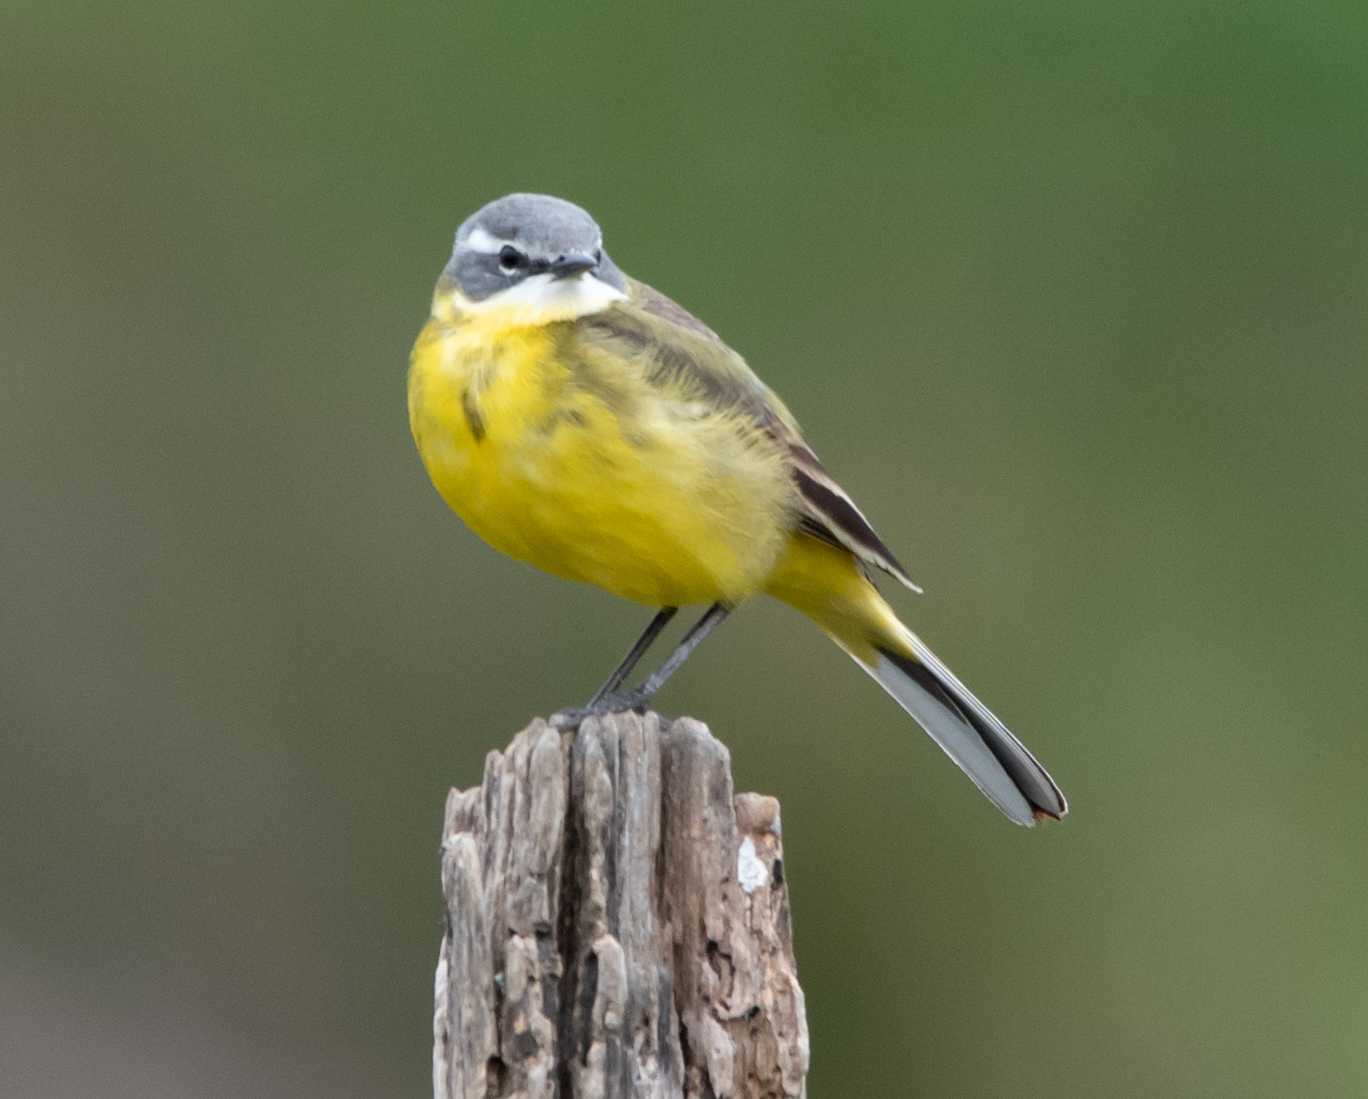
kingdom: Animalia
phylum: Chordata
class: Aves
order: Passeriformes
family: Motacillidae
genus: Motacilla
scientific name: Motacilla flava
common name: Western yellow wagtail
